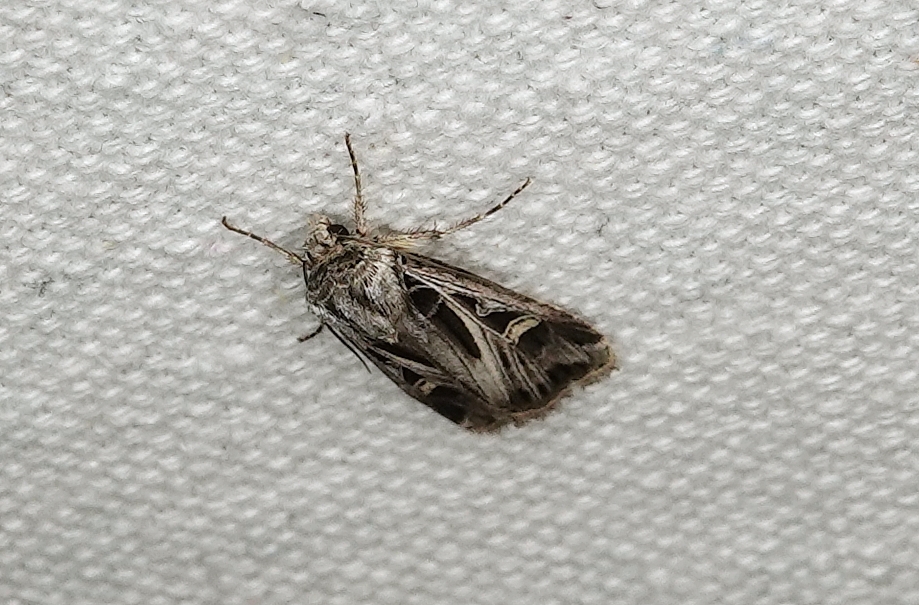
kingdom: Animalia
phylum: Arthropoda
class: Insecta
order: Lepidoptera
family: Noctuidae
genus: Feltia
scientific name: Feltia jaculifera
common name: Dingy cutworm moth
